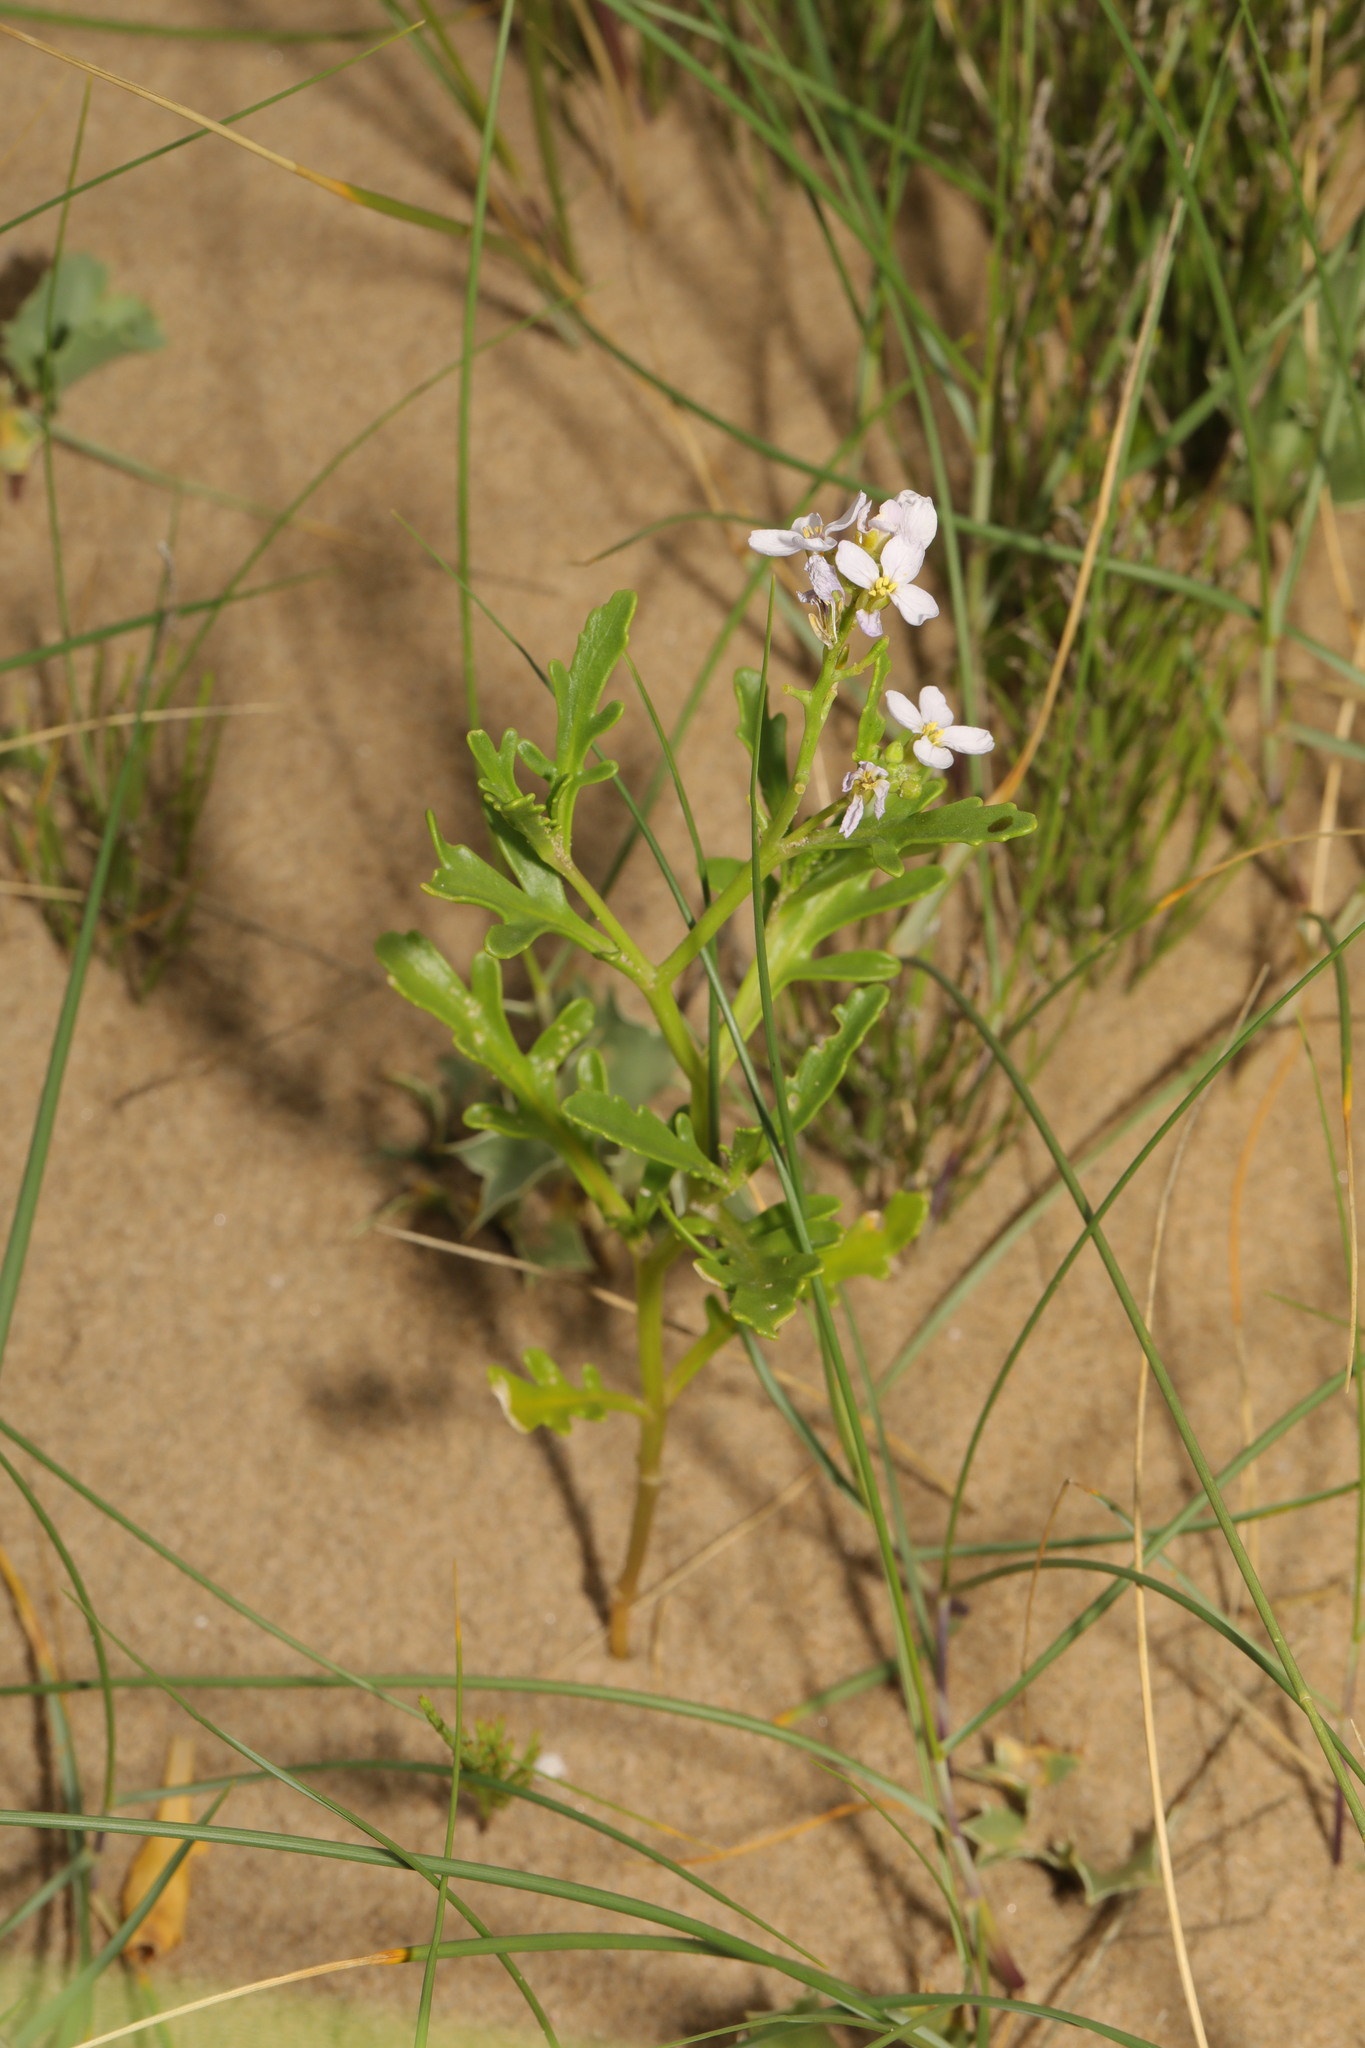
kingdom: Plantae
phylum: Tracheophyta
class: Magnoliopsida
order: Brassicales
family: Brassicaceae
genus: Cakile
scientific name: Cakile maritima
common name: Sea rocket
